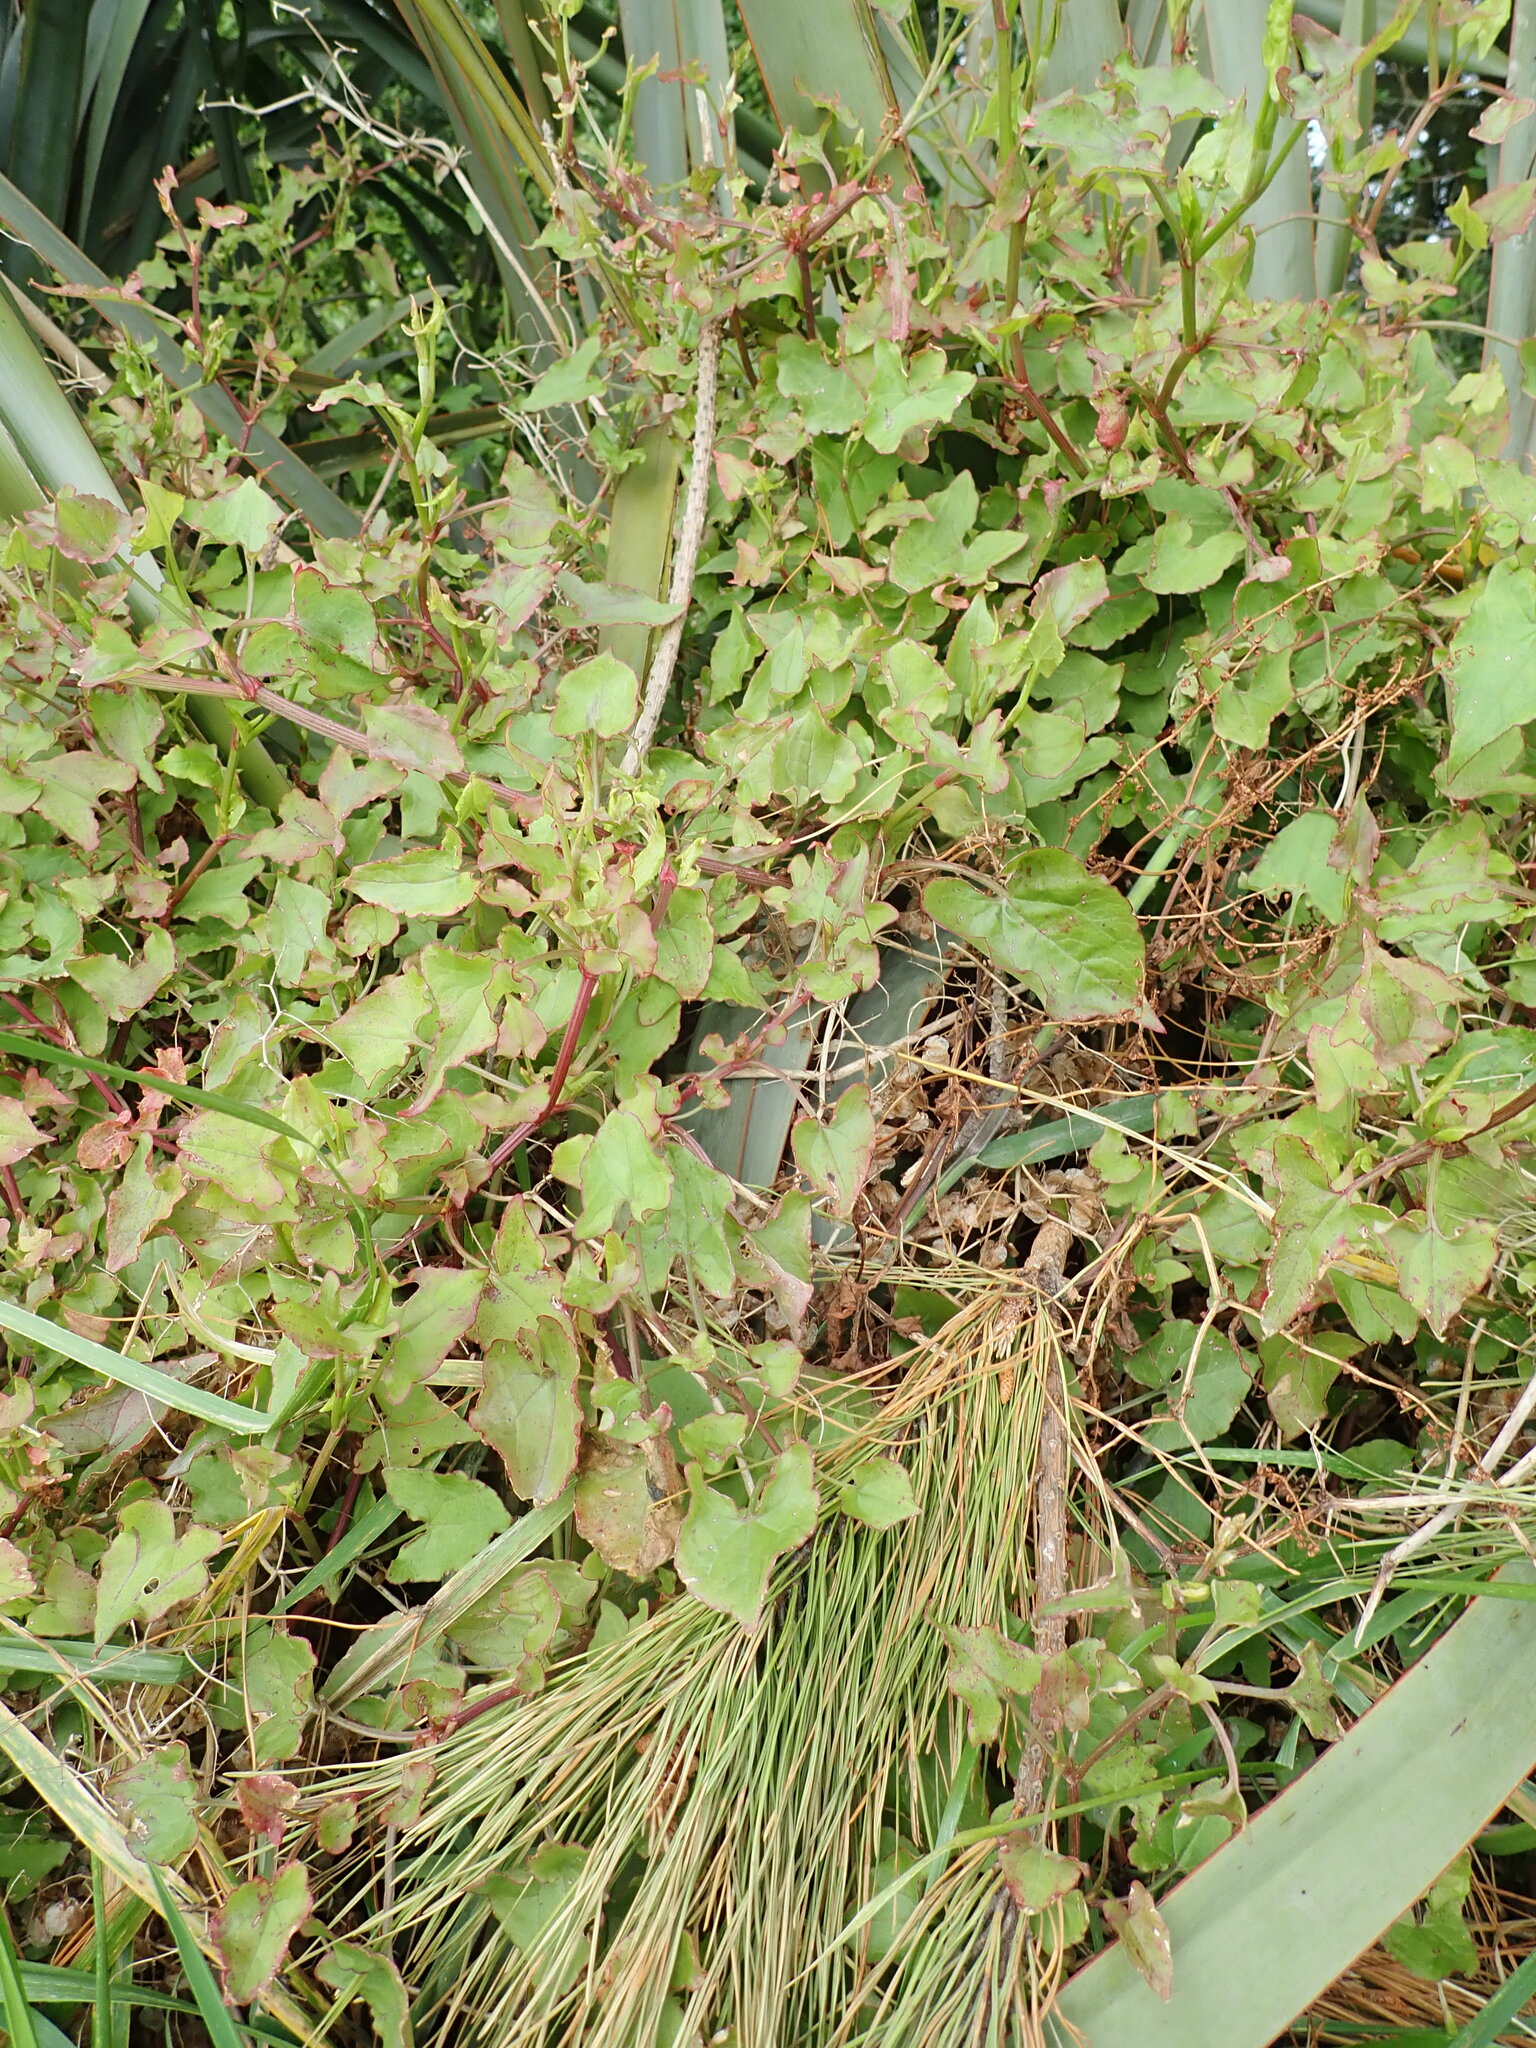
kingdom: Plantae
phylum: Tracheophyta
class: Magnoliopsida
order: Caryophyllales
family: Polygonaceae
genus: Rumex
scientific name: Rumex sagittatus
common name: Climbing dock
